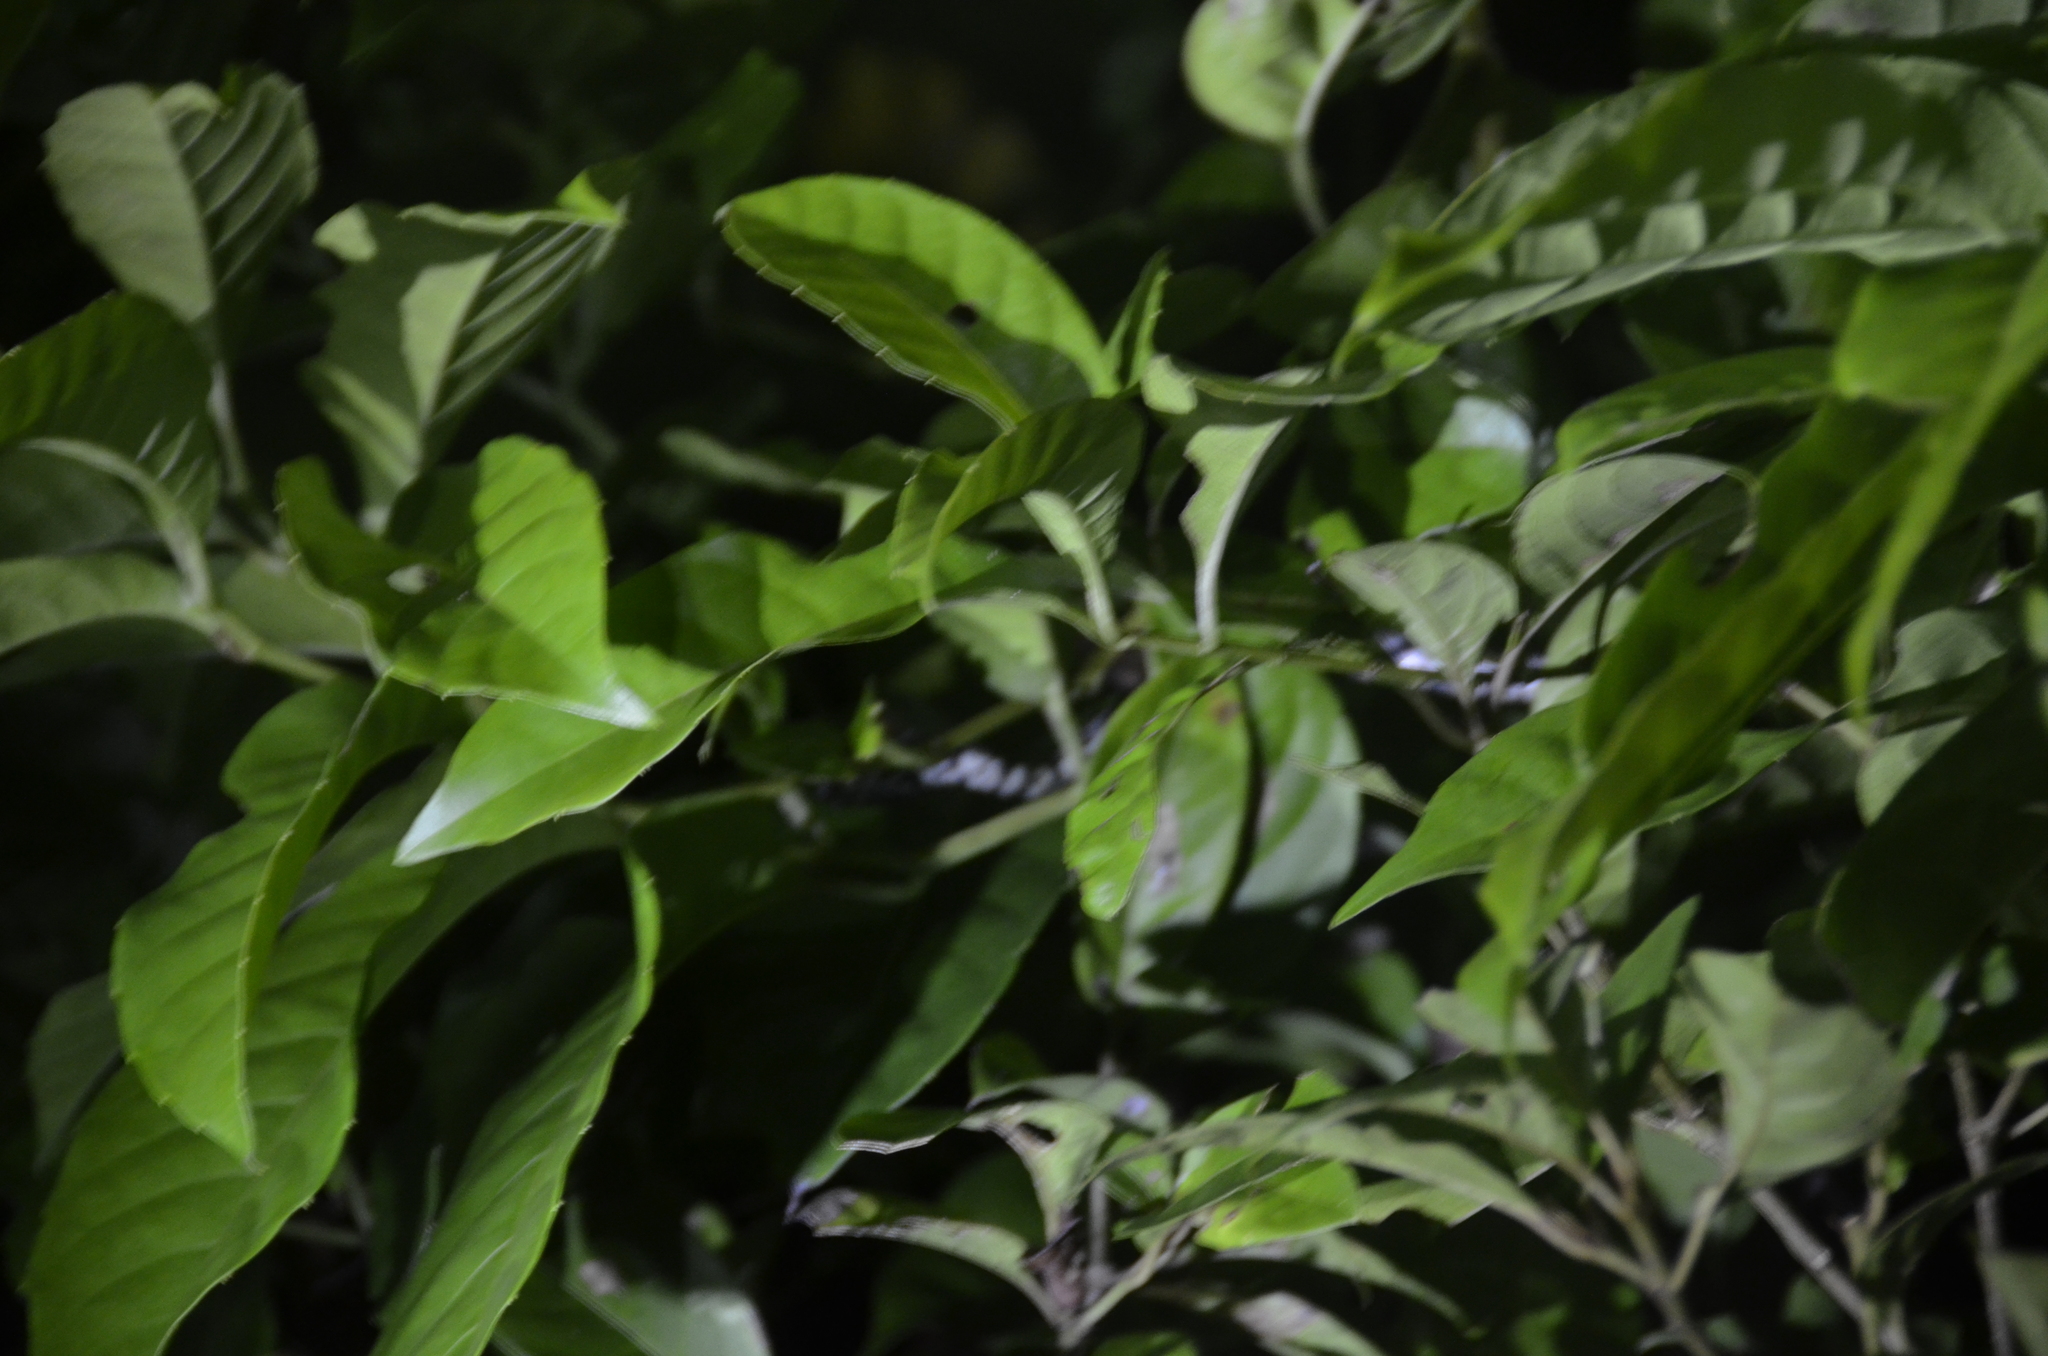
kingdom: Animalia
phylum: Chordata
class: Squamata
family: Colubridae
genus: Sibon
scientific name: Sibon nebulatus
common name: Cloudy snail-eating snake
